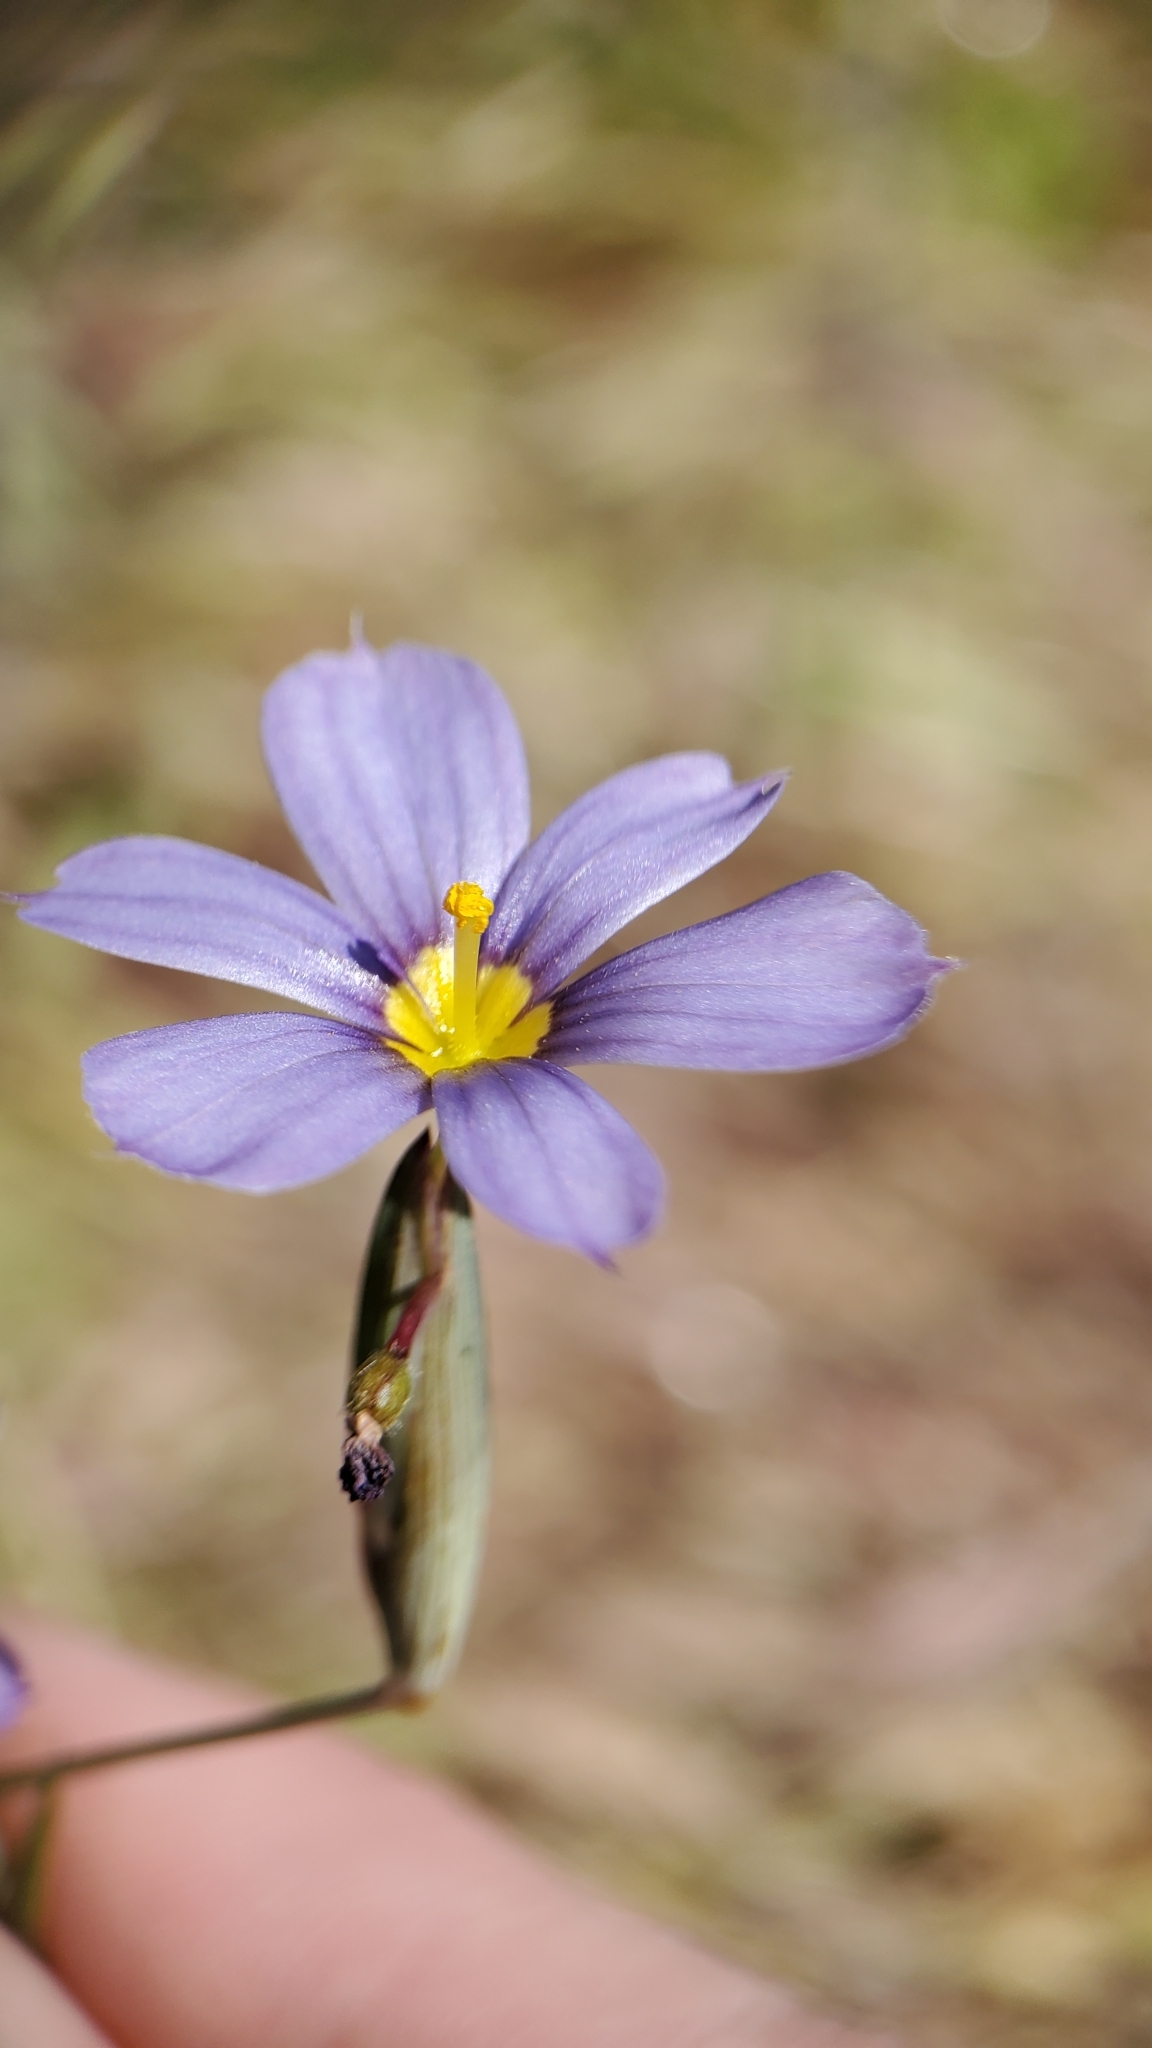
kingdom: Plantae
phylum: Tracheophyta
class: Liliopsida
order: Asparagales
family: Iridaceae
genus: Sisyrinchium
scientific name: Sisyrinchium bellum
